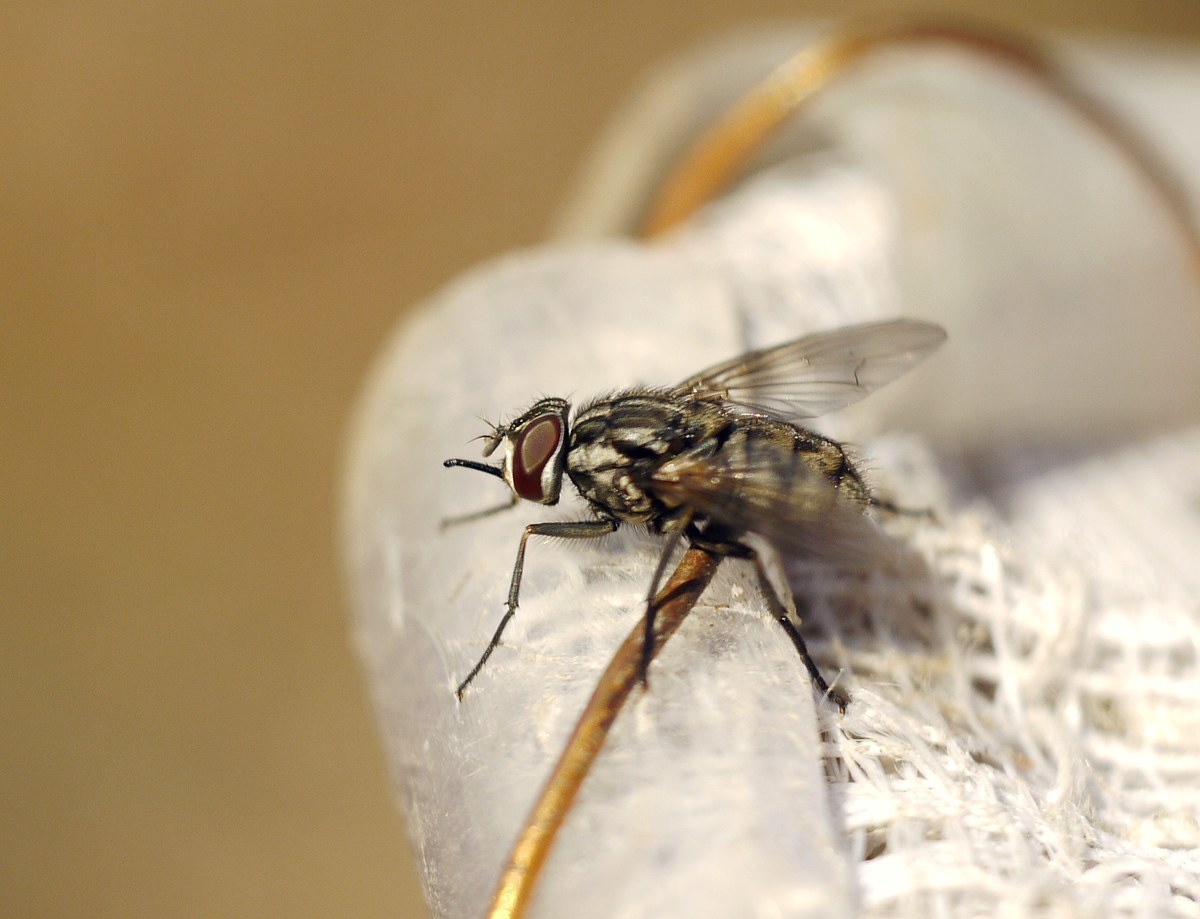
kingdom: Animalia
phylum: Arthropoda
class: Insecta
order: Diptera
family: Muscidae
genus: Stomoxys
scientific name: Stomoxys calcitrans
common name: Stable fly
